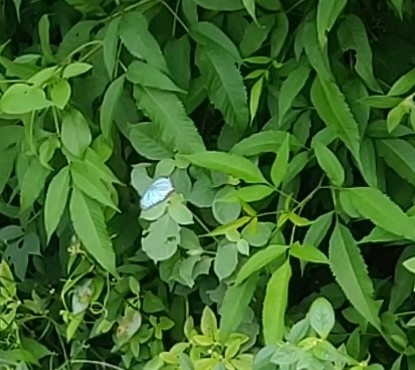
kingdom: Animalia
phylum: Arthropoda
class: Insecta
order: Lepidoptera
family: Pieridae
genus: Pareronia
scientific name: Pareronia hippia
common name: Indian wanderer
